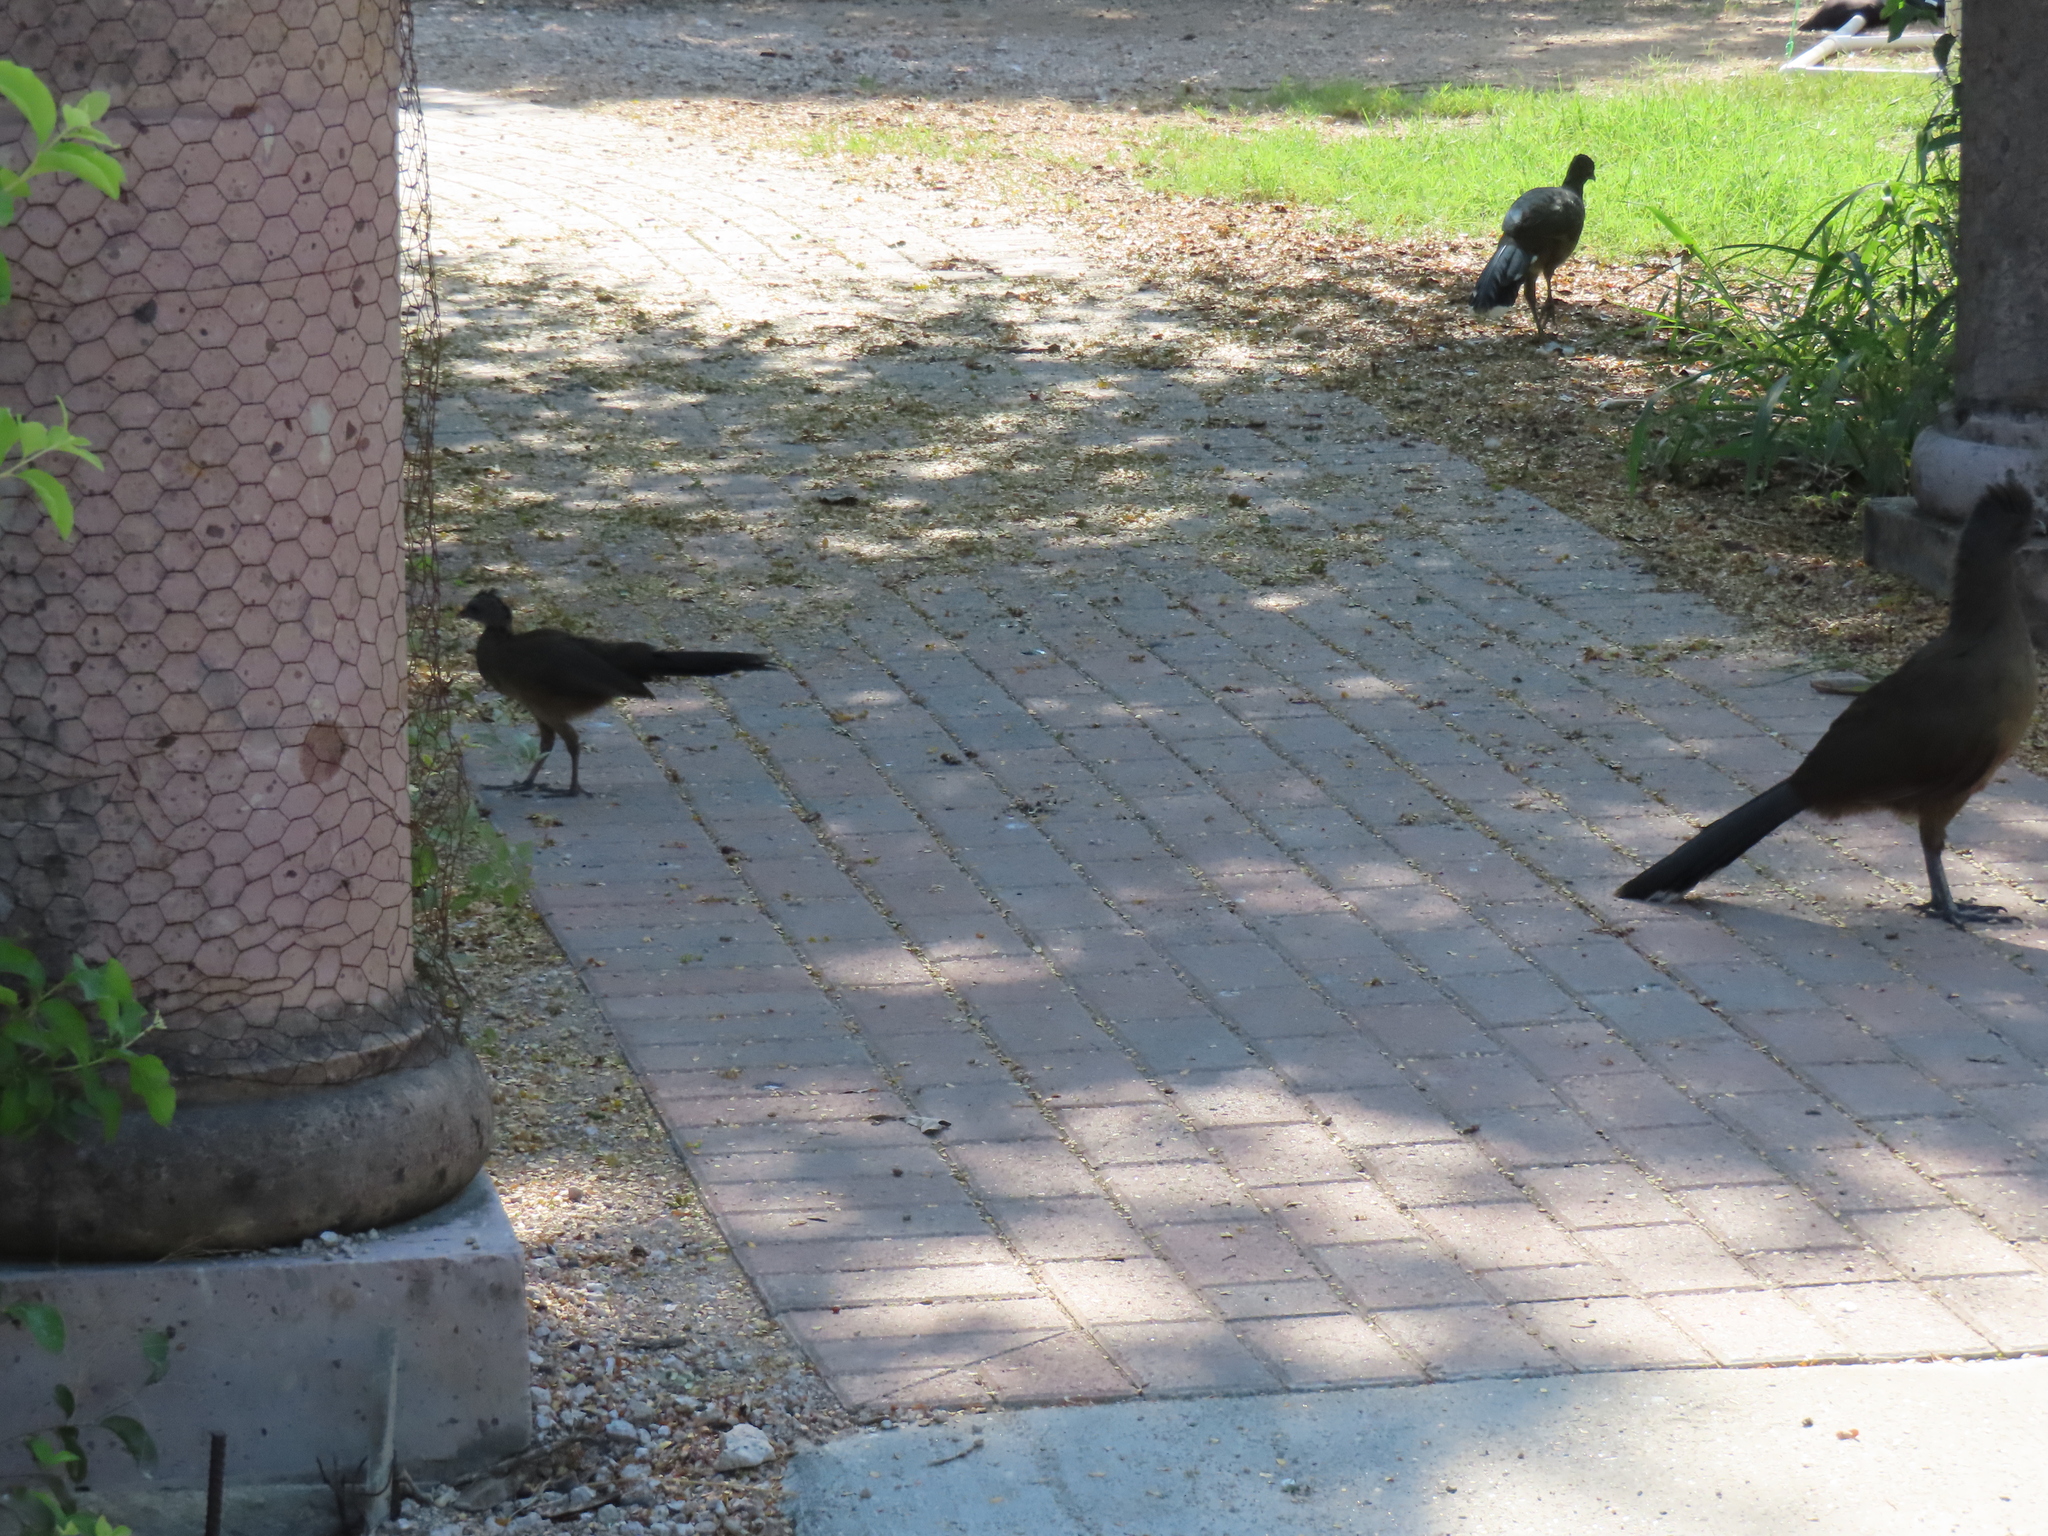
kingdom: Animalia
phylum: Chordata
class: Aves
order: Galliformes
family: Cracidae
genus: Ortalis
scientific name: Ortalis vetula
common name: Plain chachalaca
